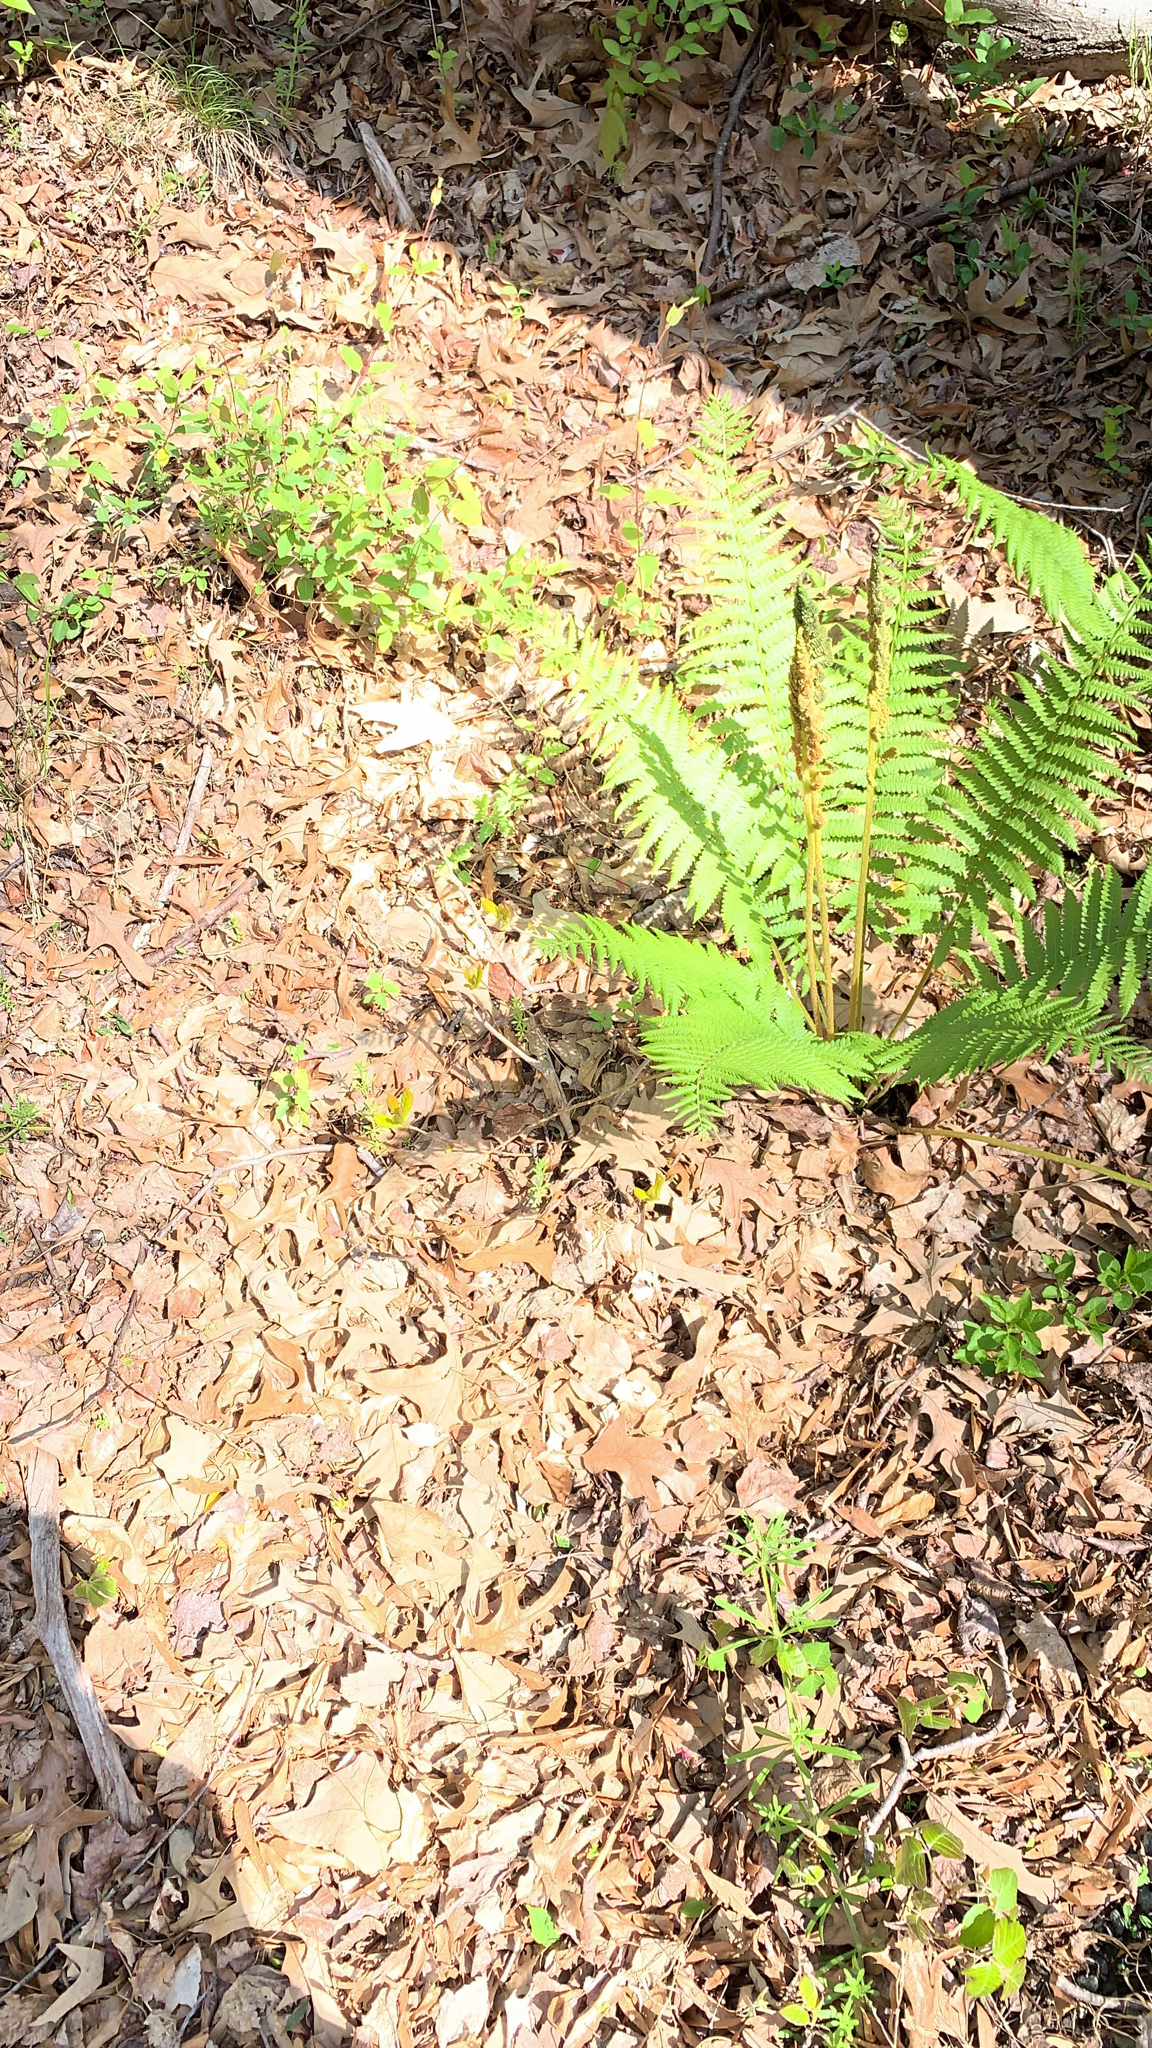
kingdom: Plantae
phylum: Tracheophyta
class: Polypodiopsida
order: Osmundales
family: Osmundaceae
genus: Osmundastrum
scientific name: Osmundastrum cinnamomeum
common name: Cinnamon fern
